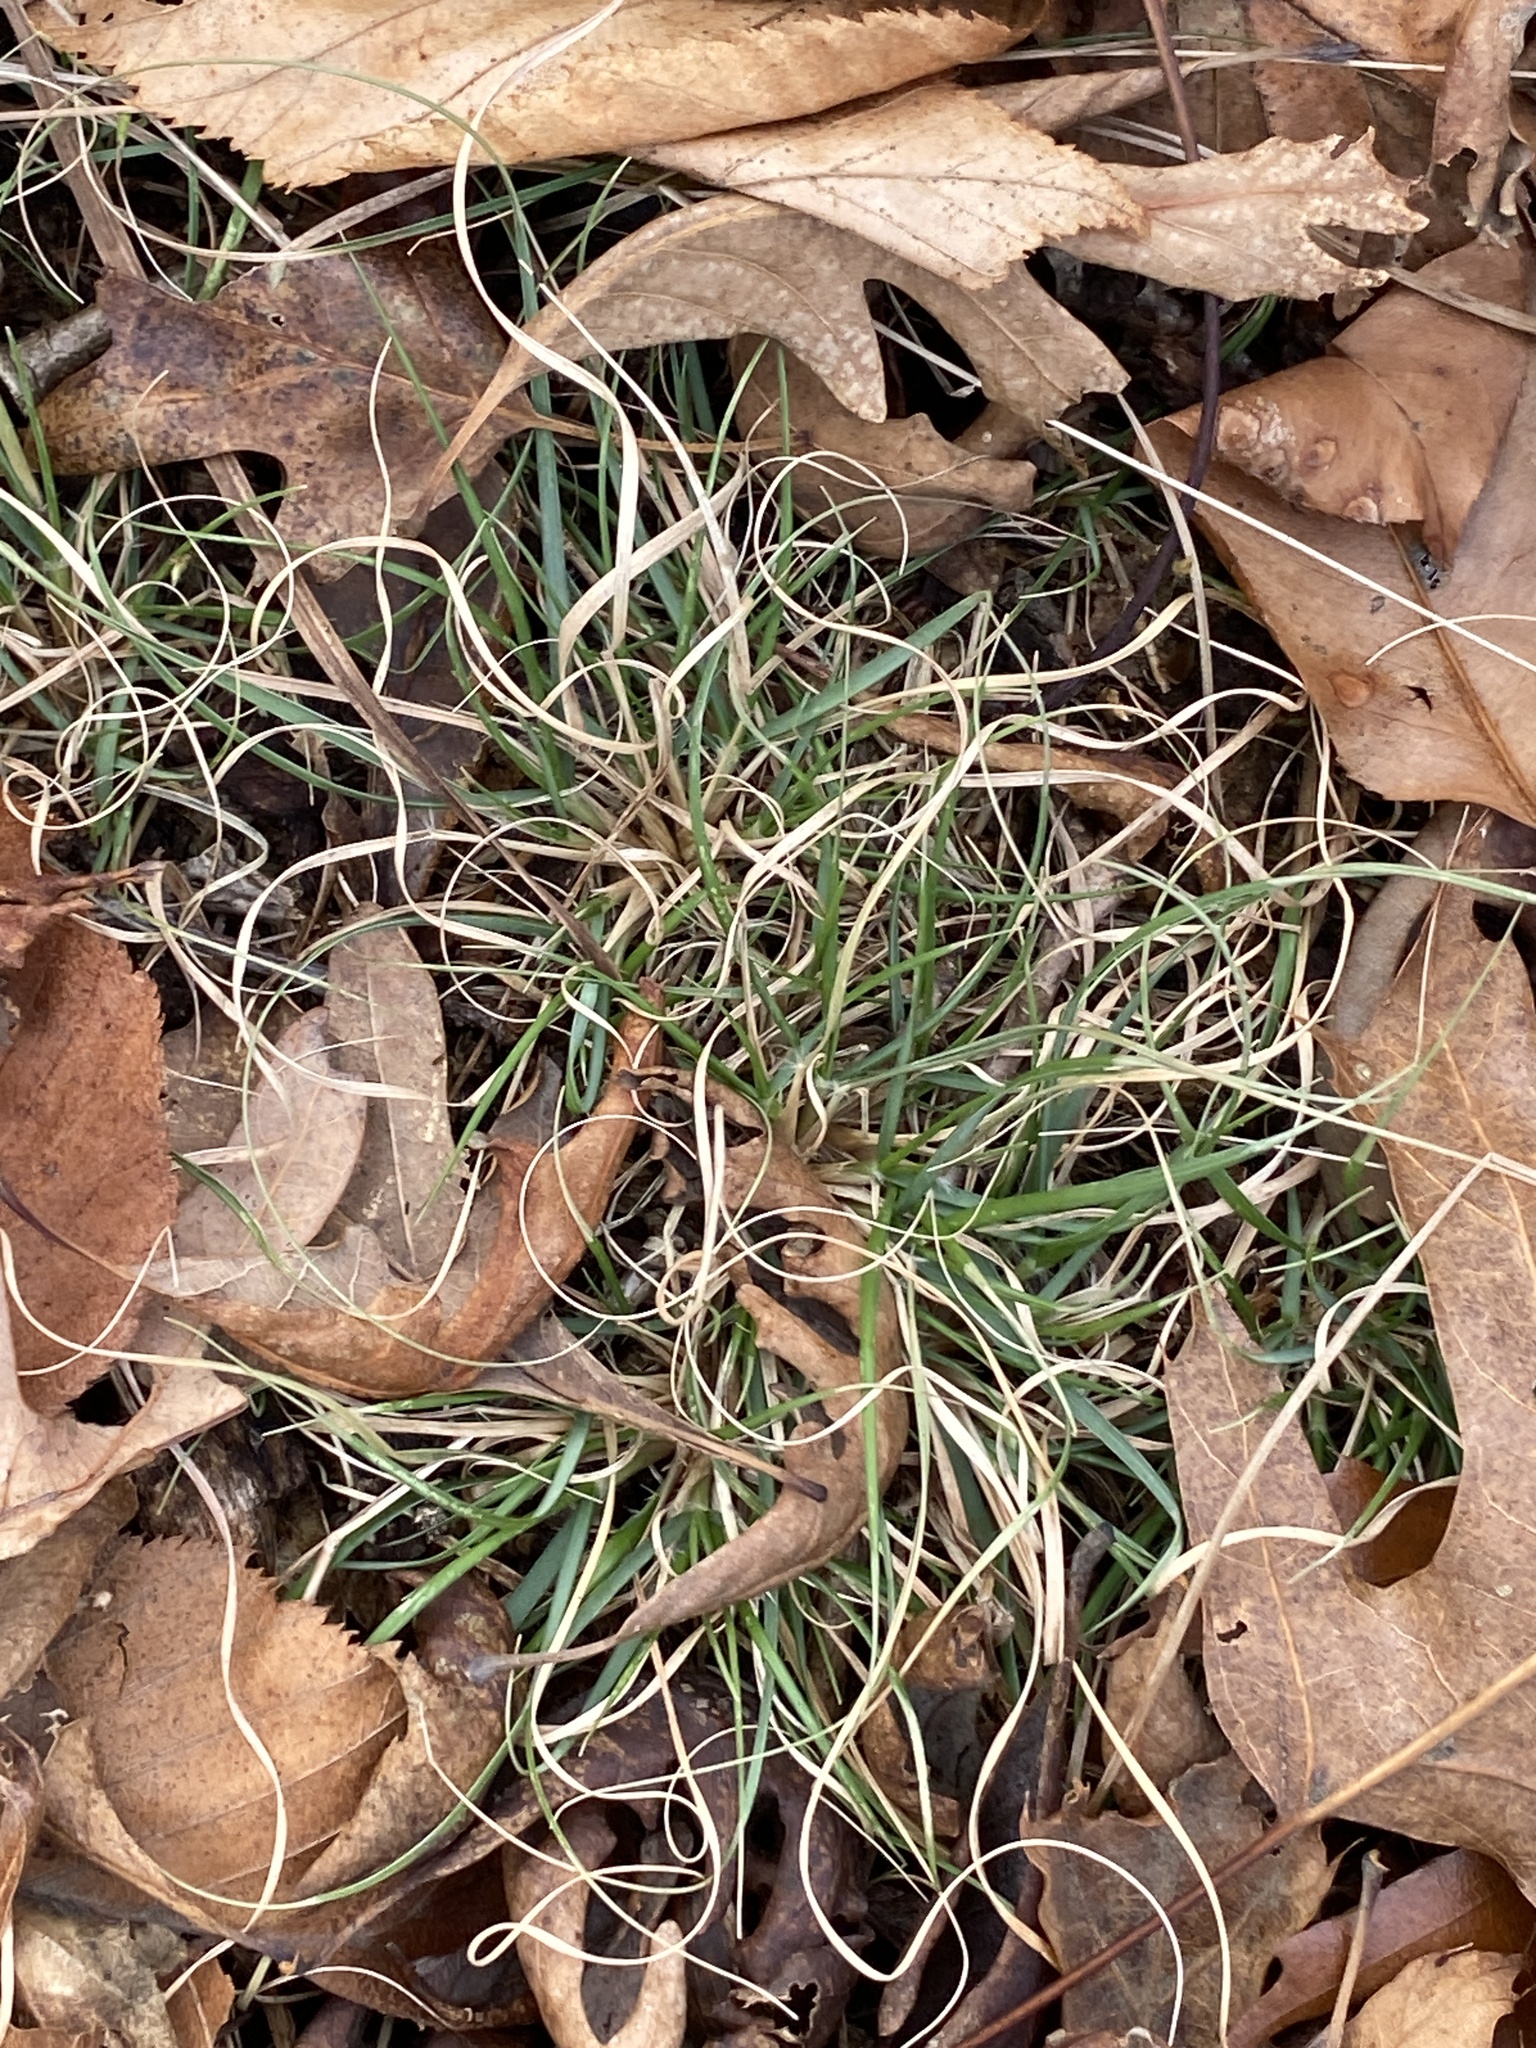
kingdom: Plantae
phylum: Tracheophyta
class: Liliopsida
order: Poales
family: Poaceae
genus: Danthonia
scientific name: Danthonia spicata
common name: Common wild oatgrass
